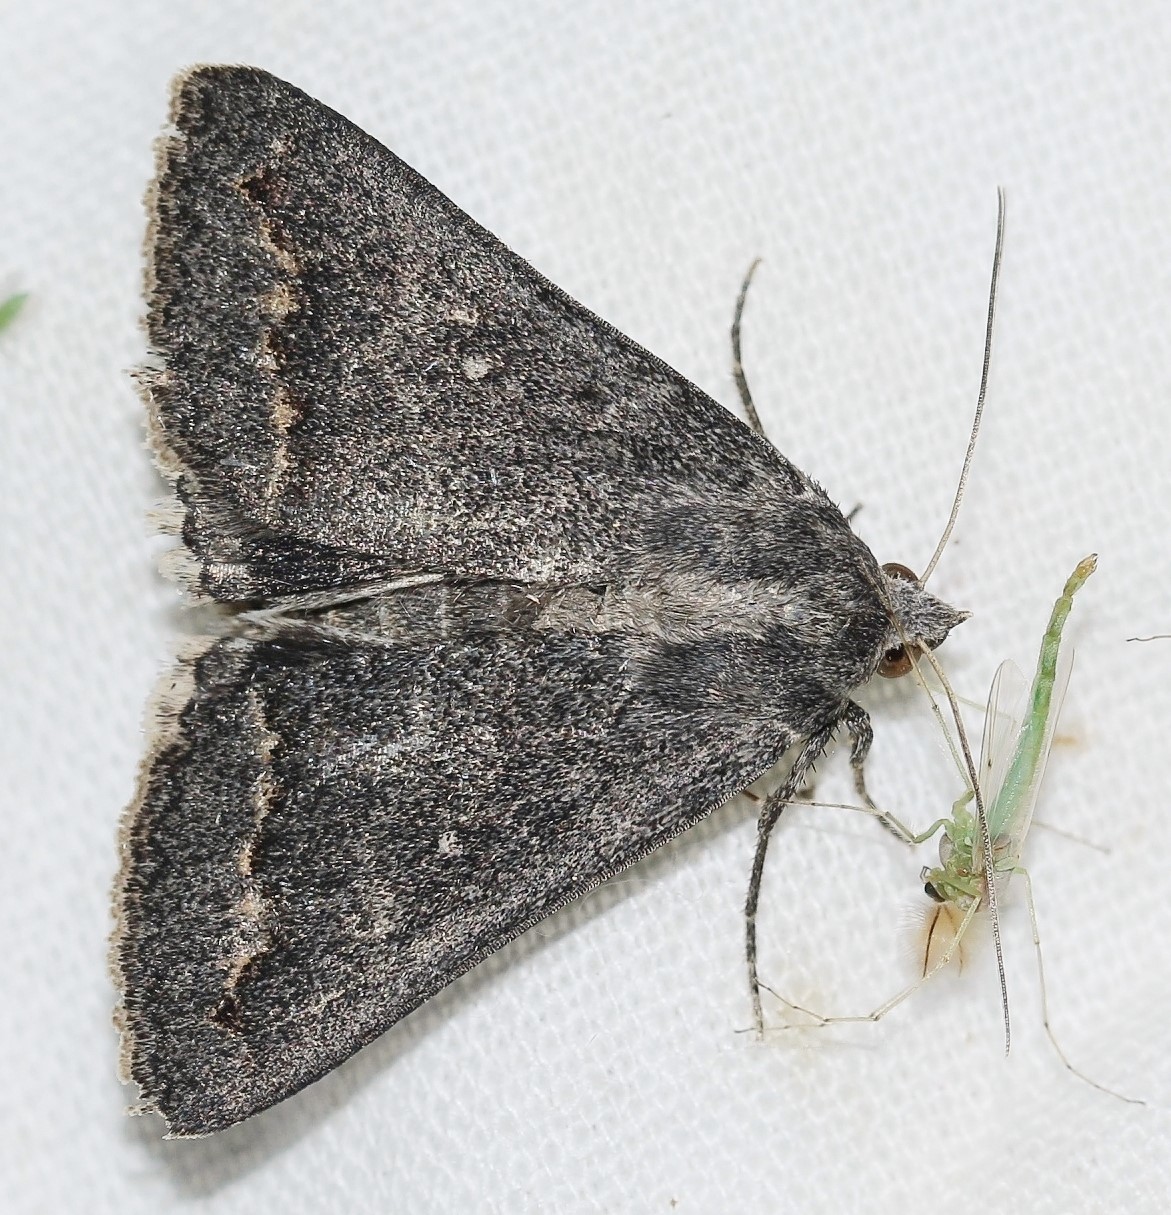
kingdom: Animalia
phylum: Arthropoda
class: Insecta
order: Lepidoptera
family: Erebidae
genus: Clytie
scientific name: Clytie gracilis
